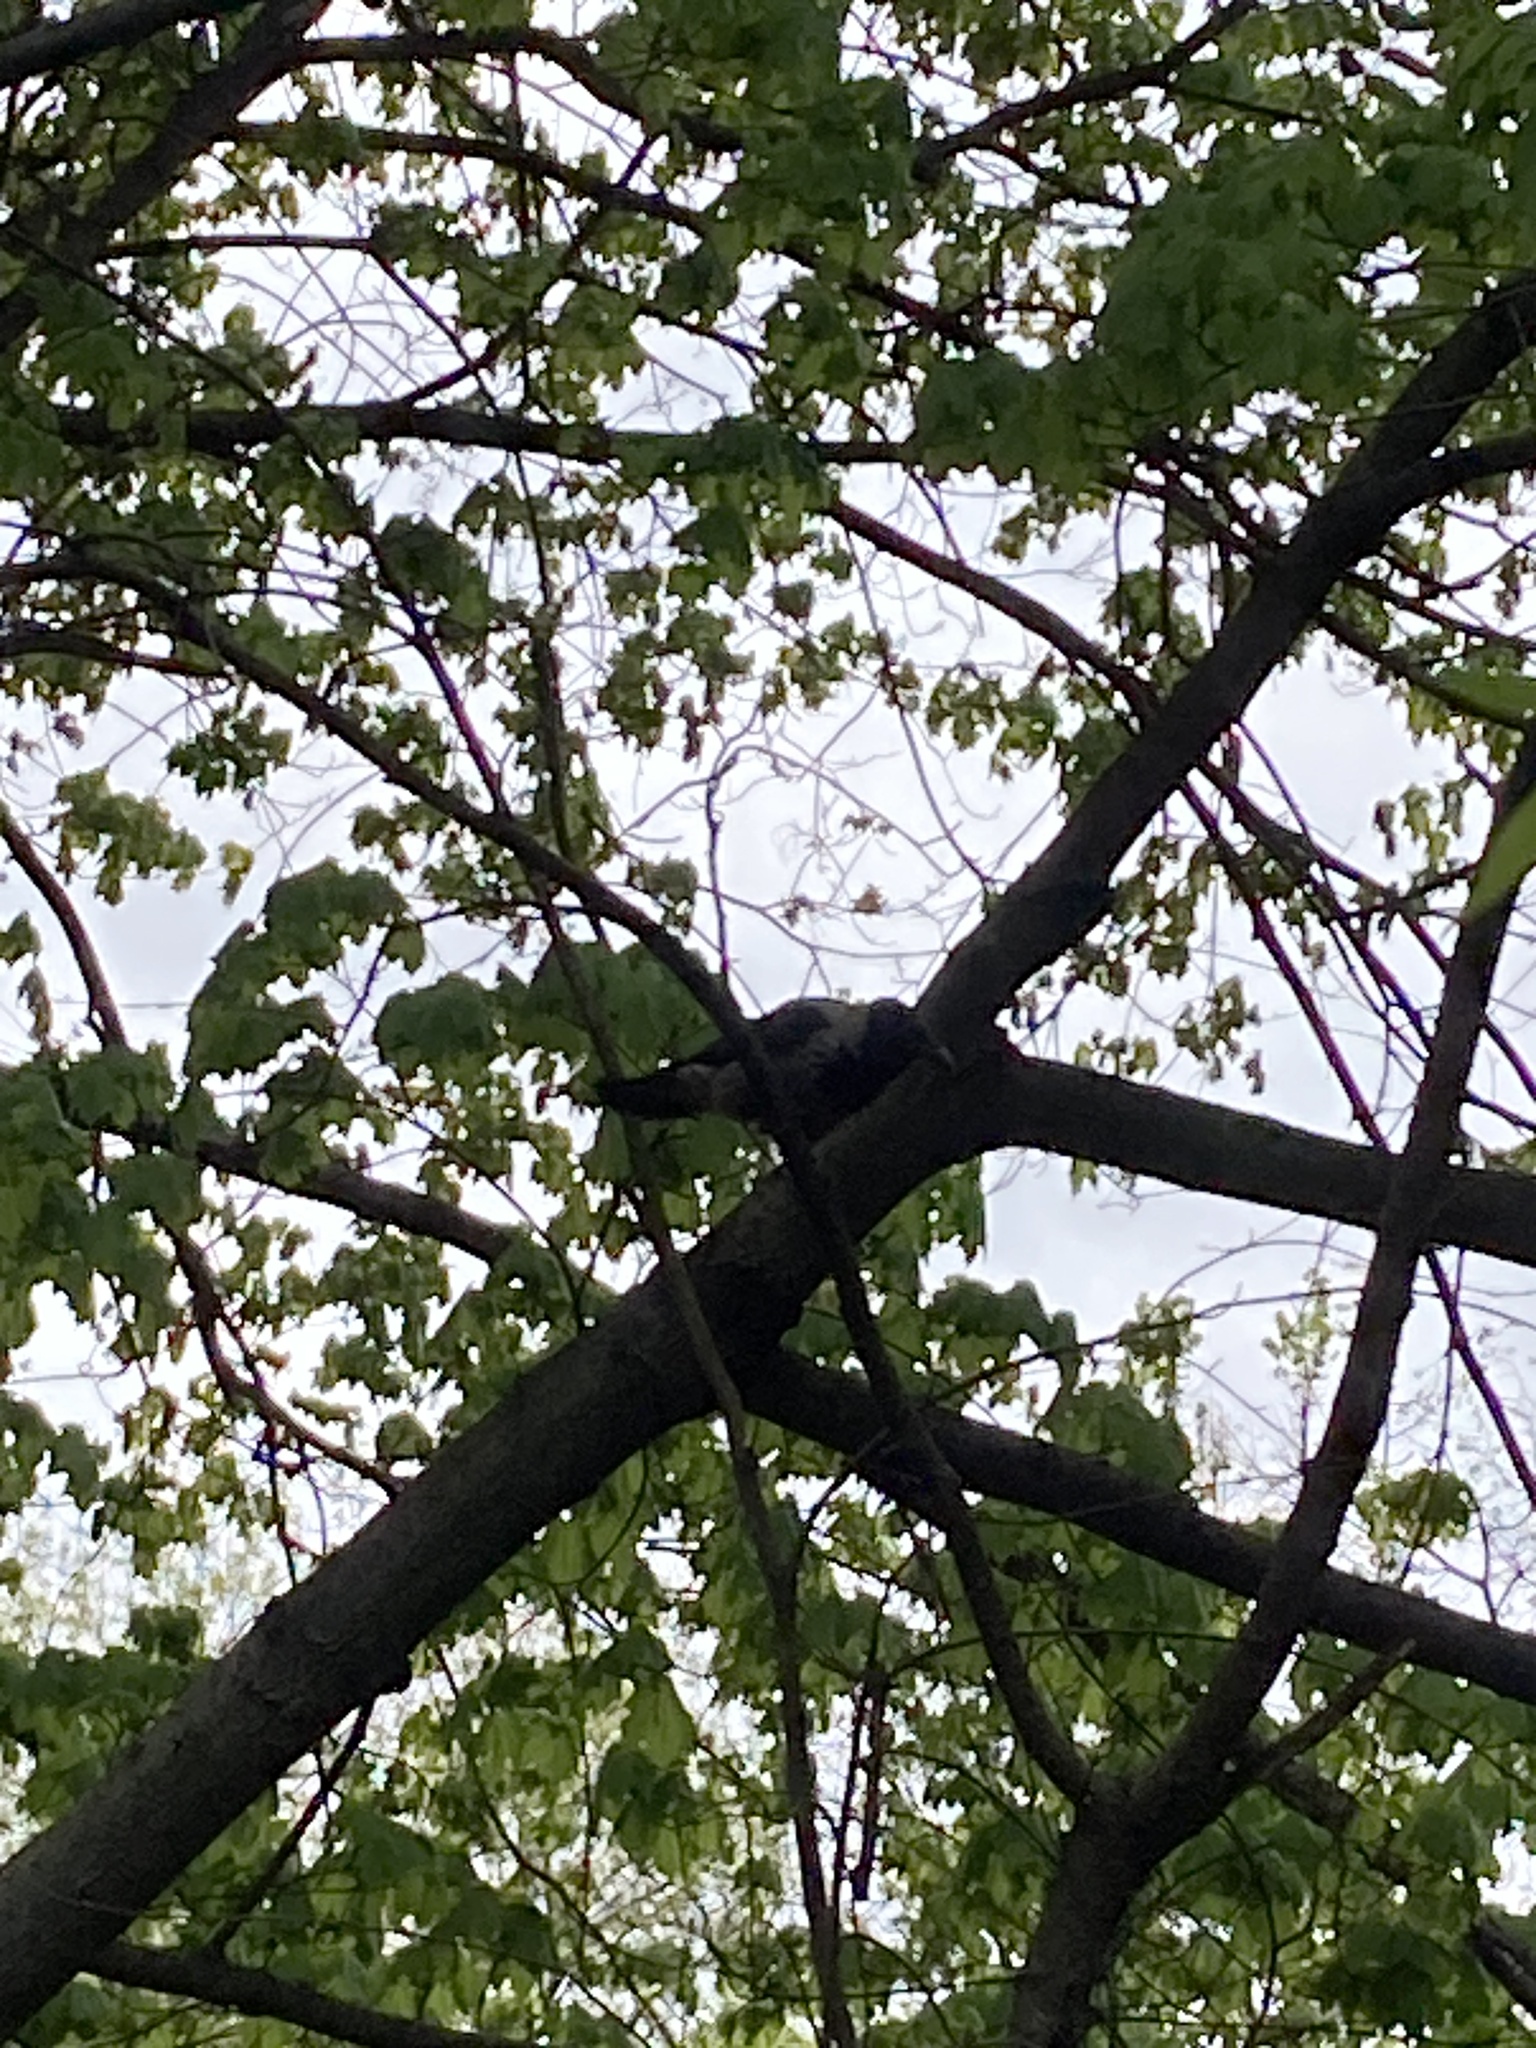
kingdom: Animalia
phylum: Chordata
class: Aves
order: Passeriformes
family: Corvidae
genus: Corvus
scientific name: Corvus cornix
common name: Hooded crow
